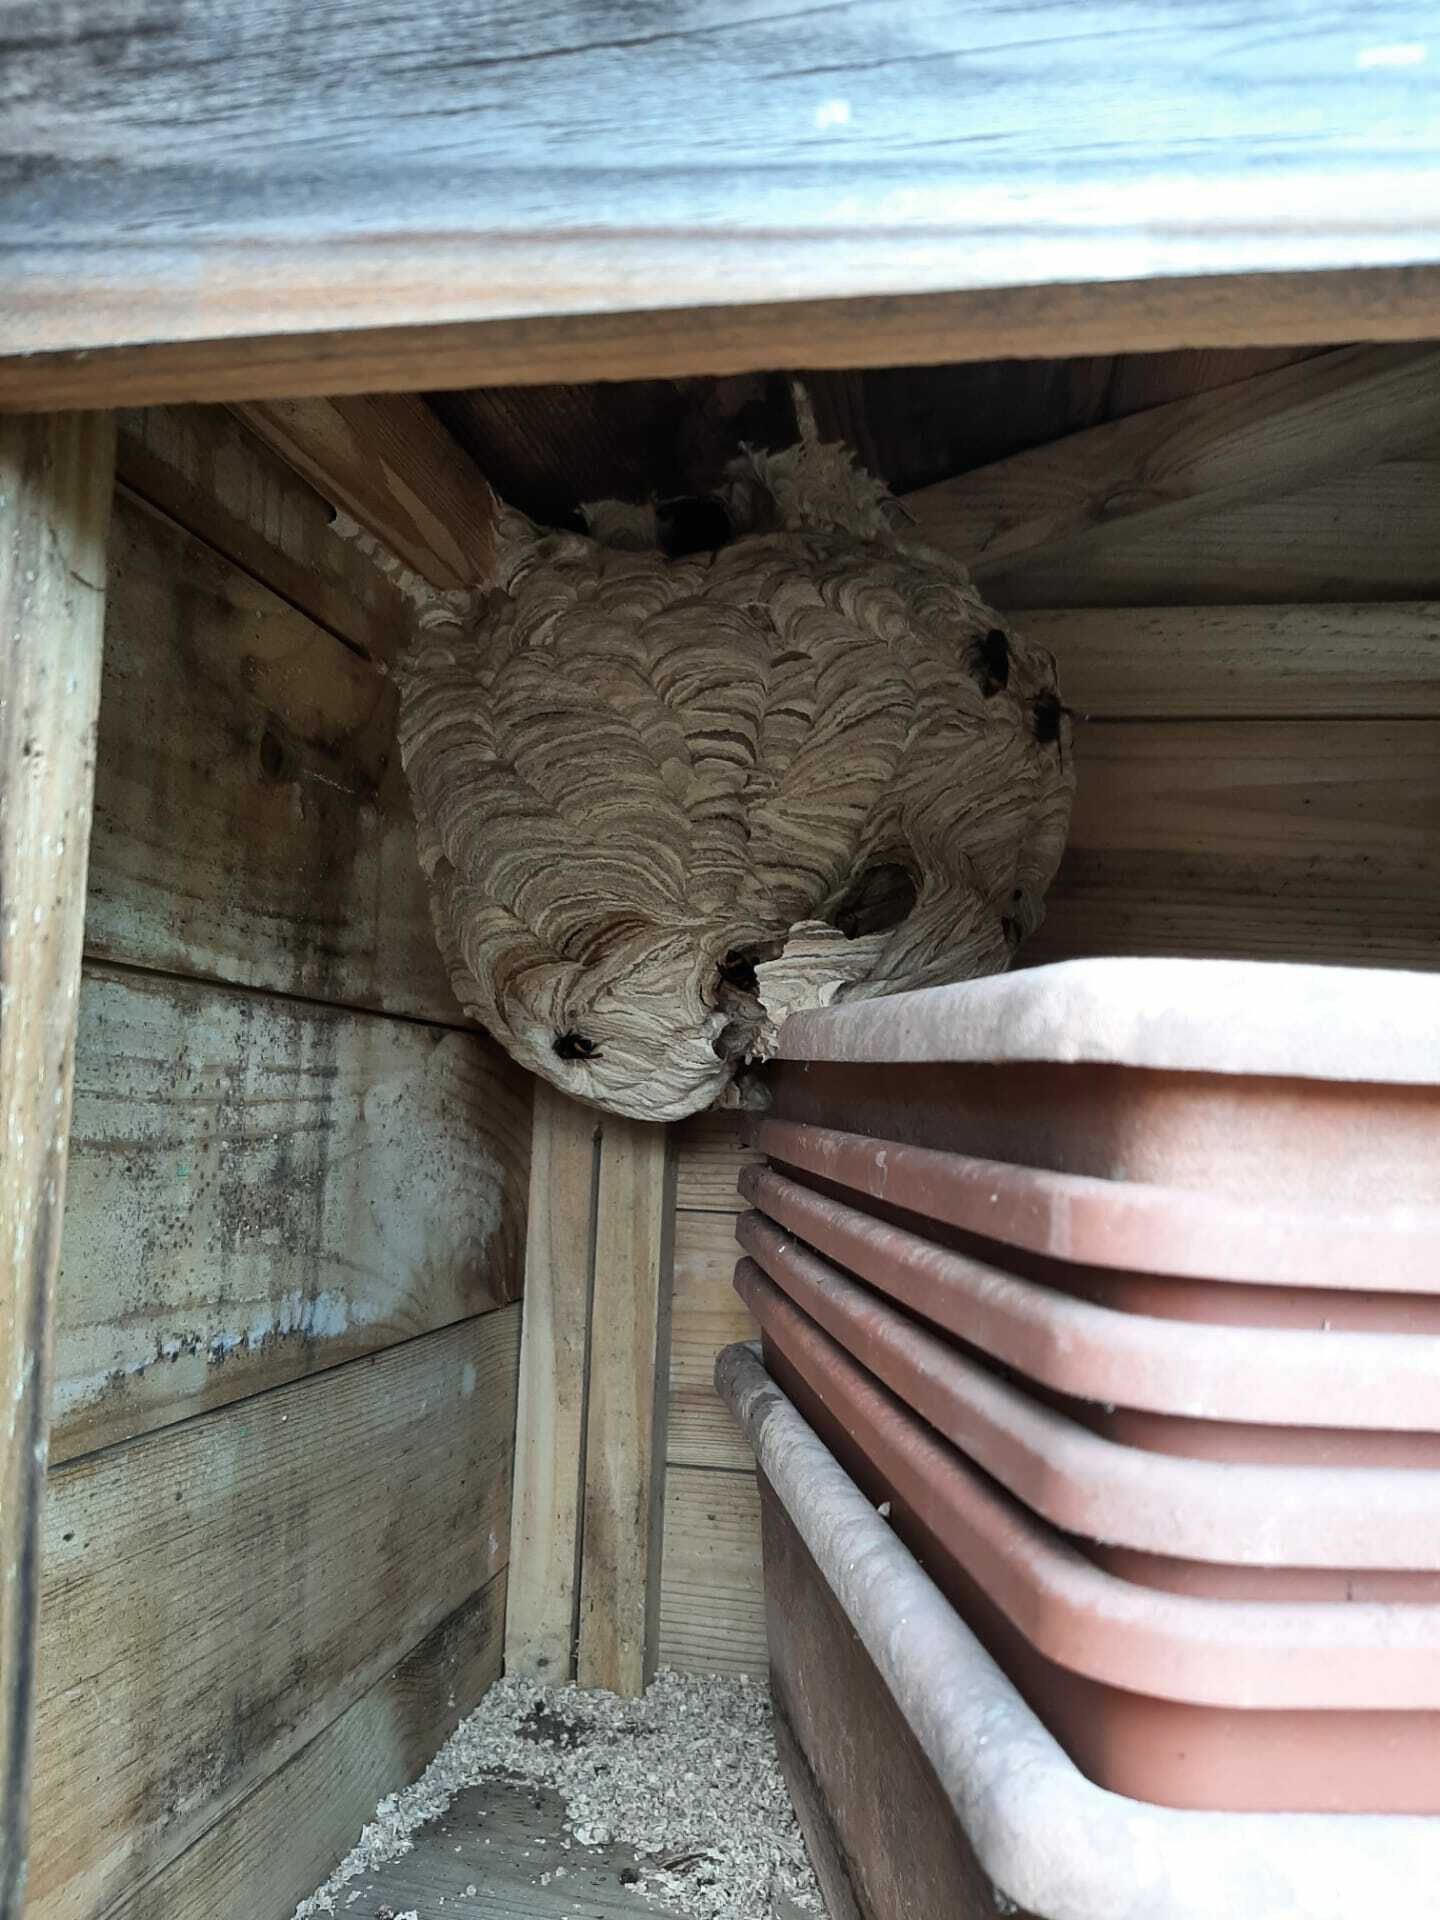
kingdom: Animalia
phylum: Arthropoda
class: Insecta
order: Hymenoptera
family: Vespidae
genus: Vespa
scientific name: Vespa velutina
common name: Asian hornet
